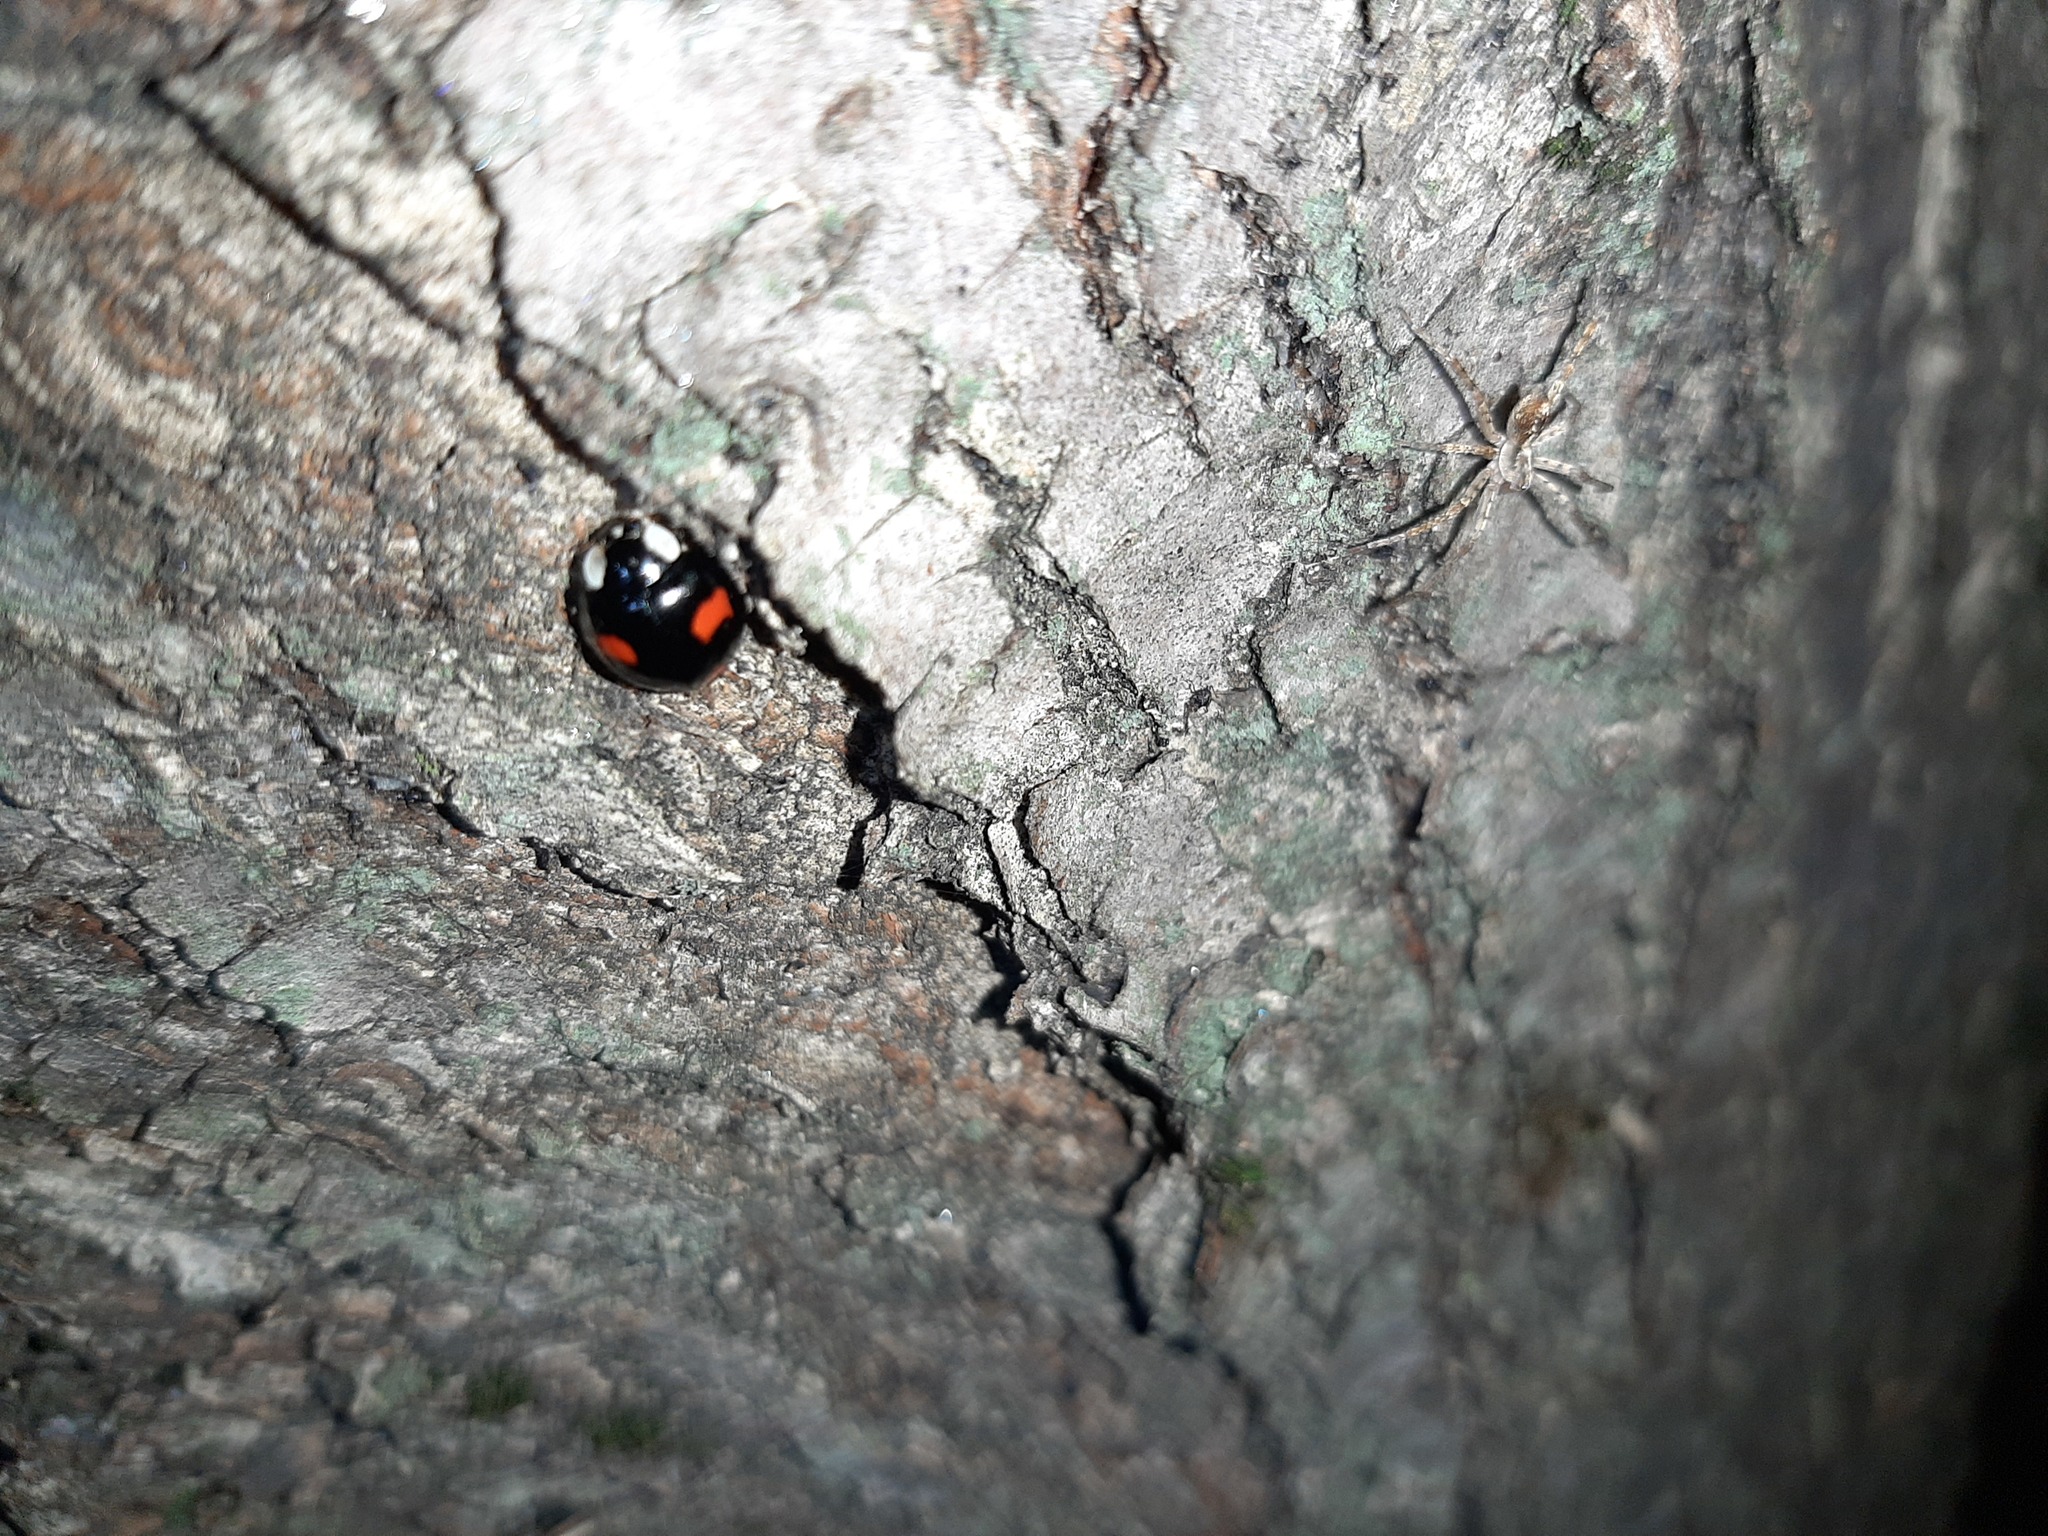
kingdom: Animalia
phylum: Arthropoda
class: Insecta
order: Coleoptera
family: Coccinellidae
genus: Harmonia
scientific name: Harmonia axyridis
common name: Harlequin ladybird
